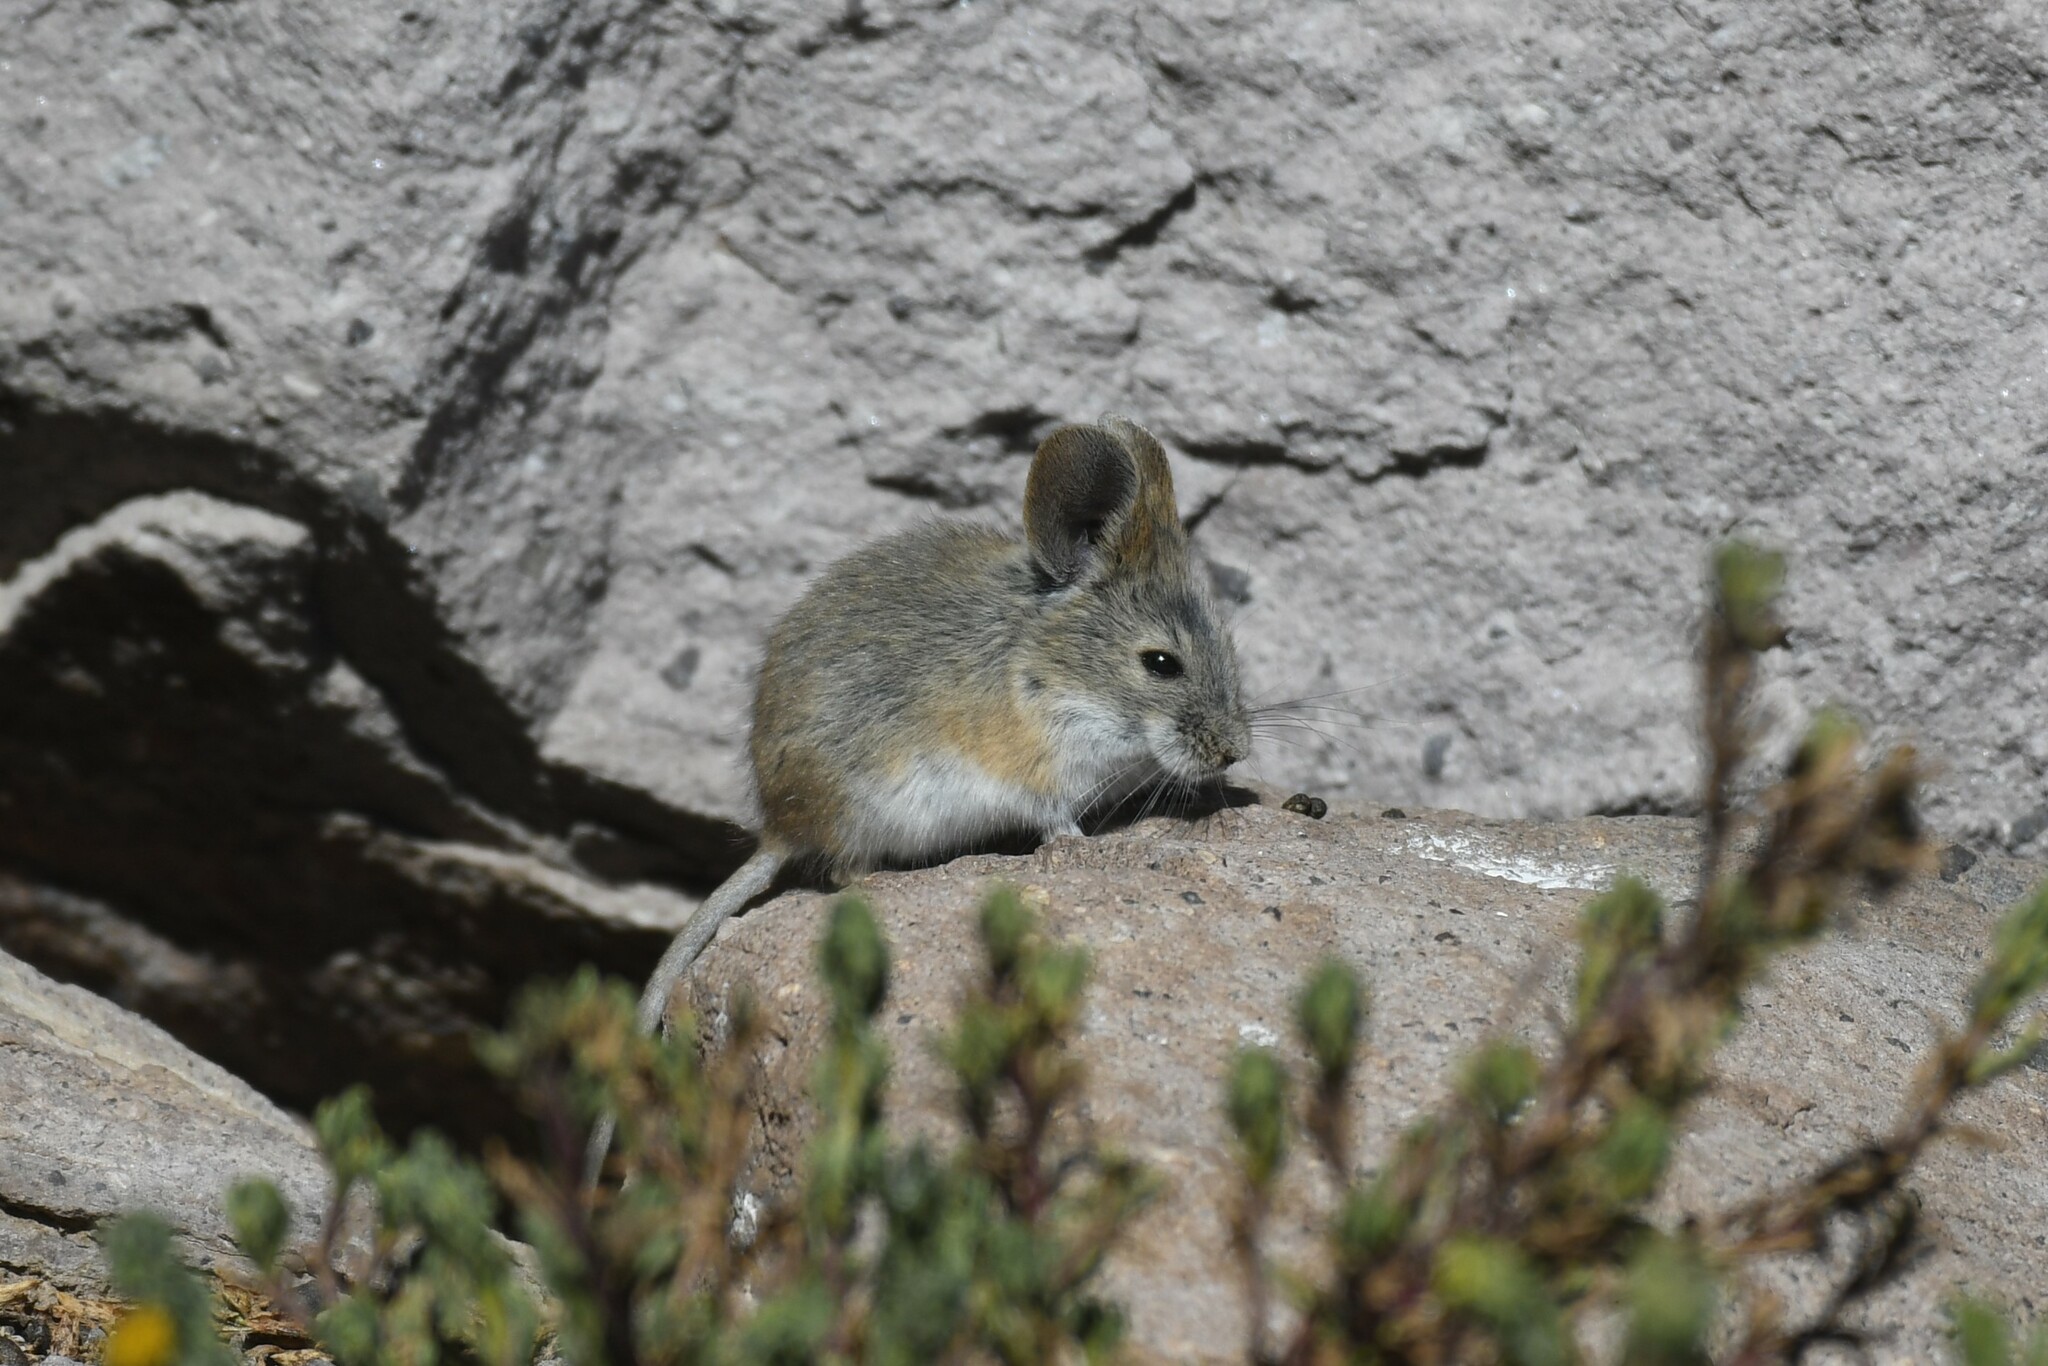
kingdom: Animalia
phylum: Chordata
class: Mammalia
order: Rodentia
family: Cricetidae
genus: Auliscomys
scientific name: Auliscomys boliviensis
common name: Bolivian pericote
